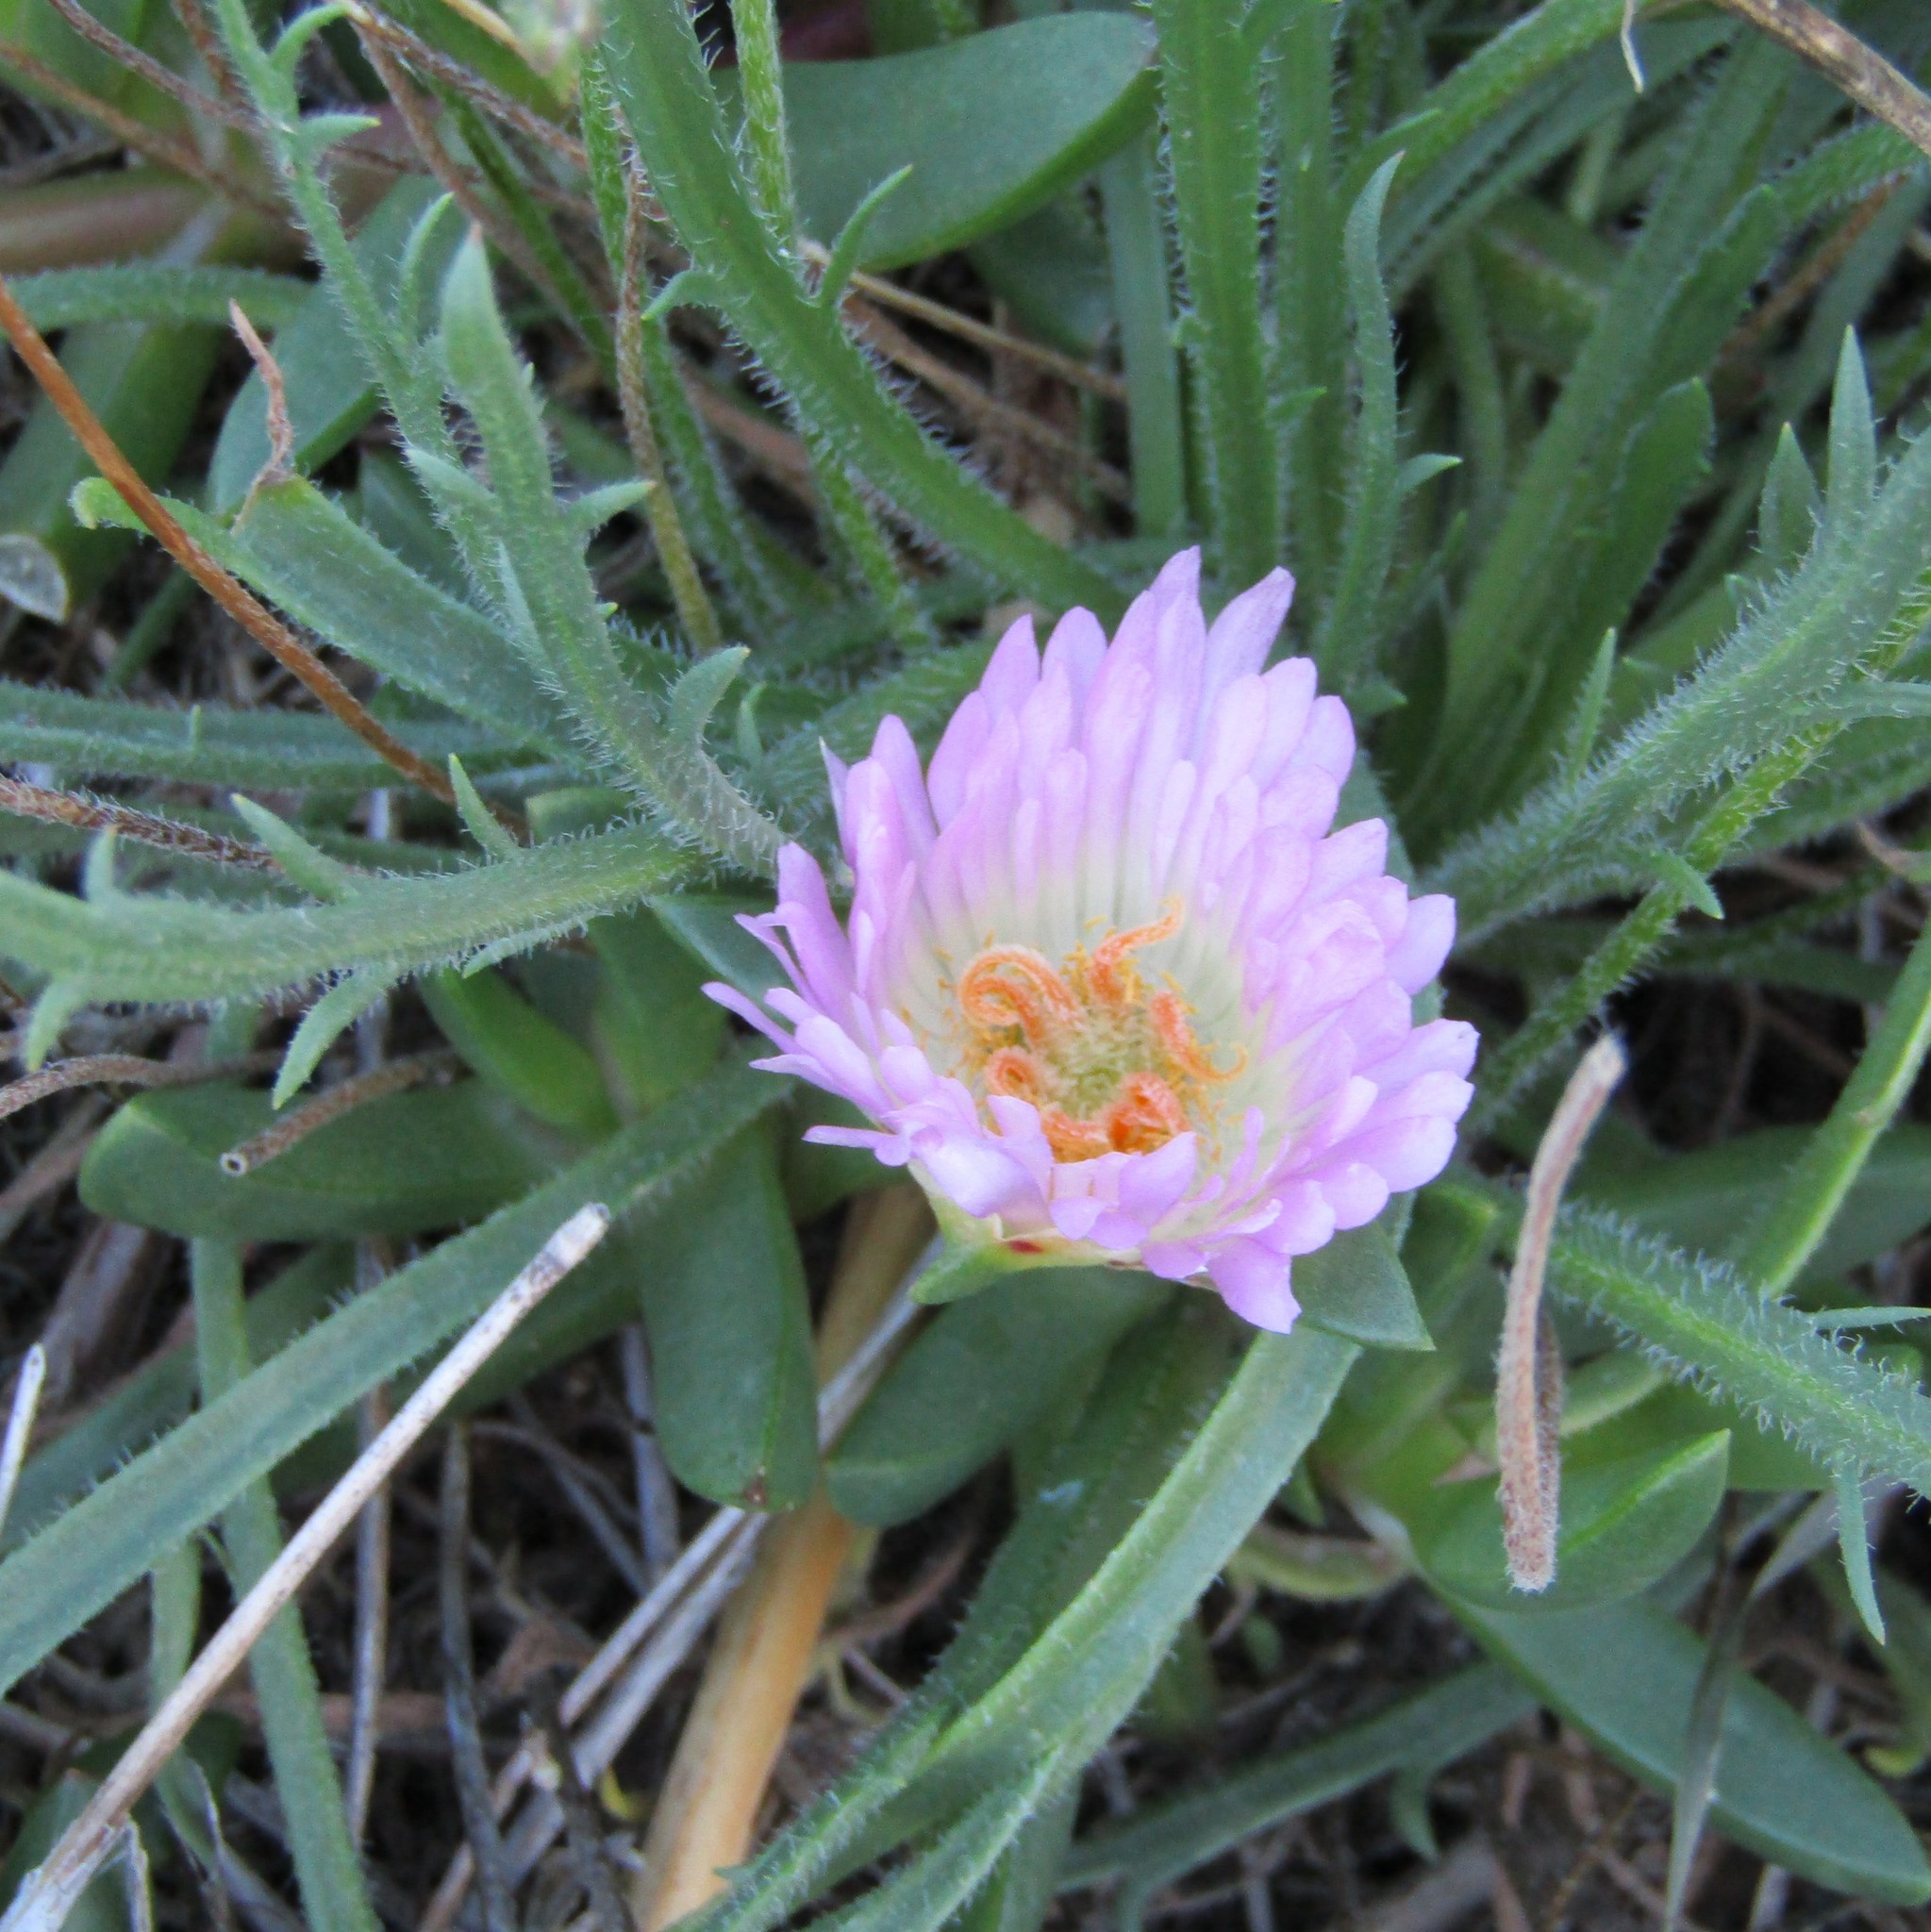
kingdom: Plantae
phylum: Tracheophyta
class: Magnoliopsida
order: Caryophyllales
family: Aizoaceae
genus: Disphyma
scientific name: Disphyma australe
